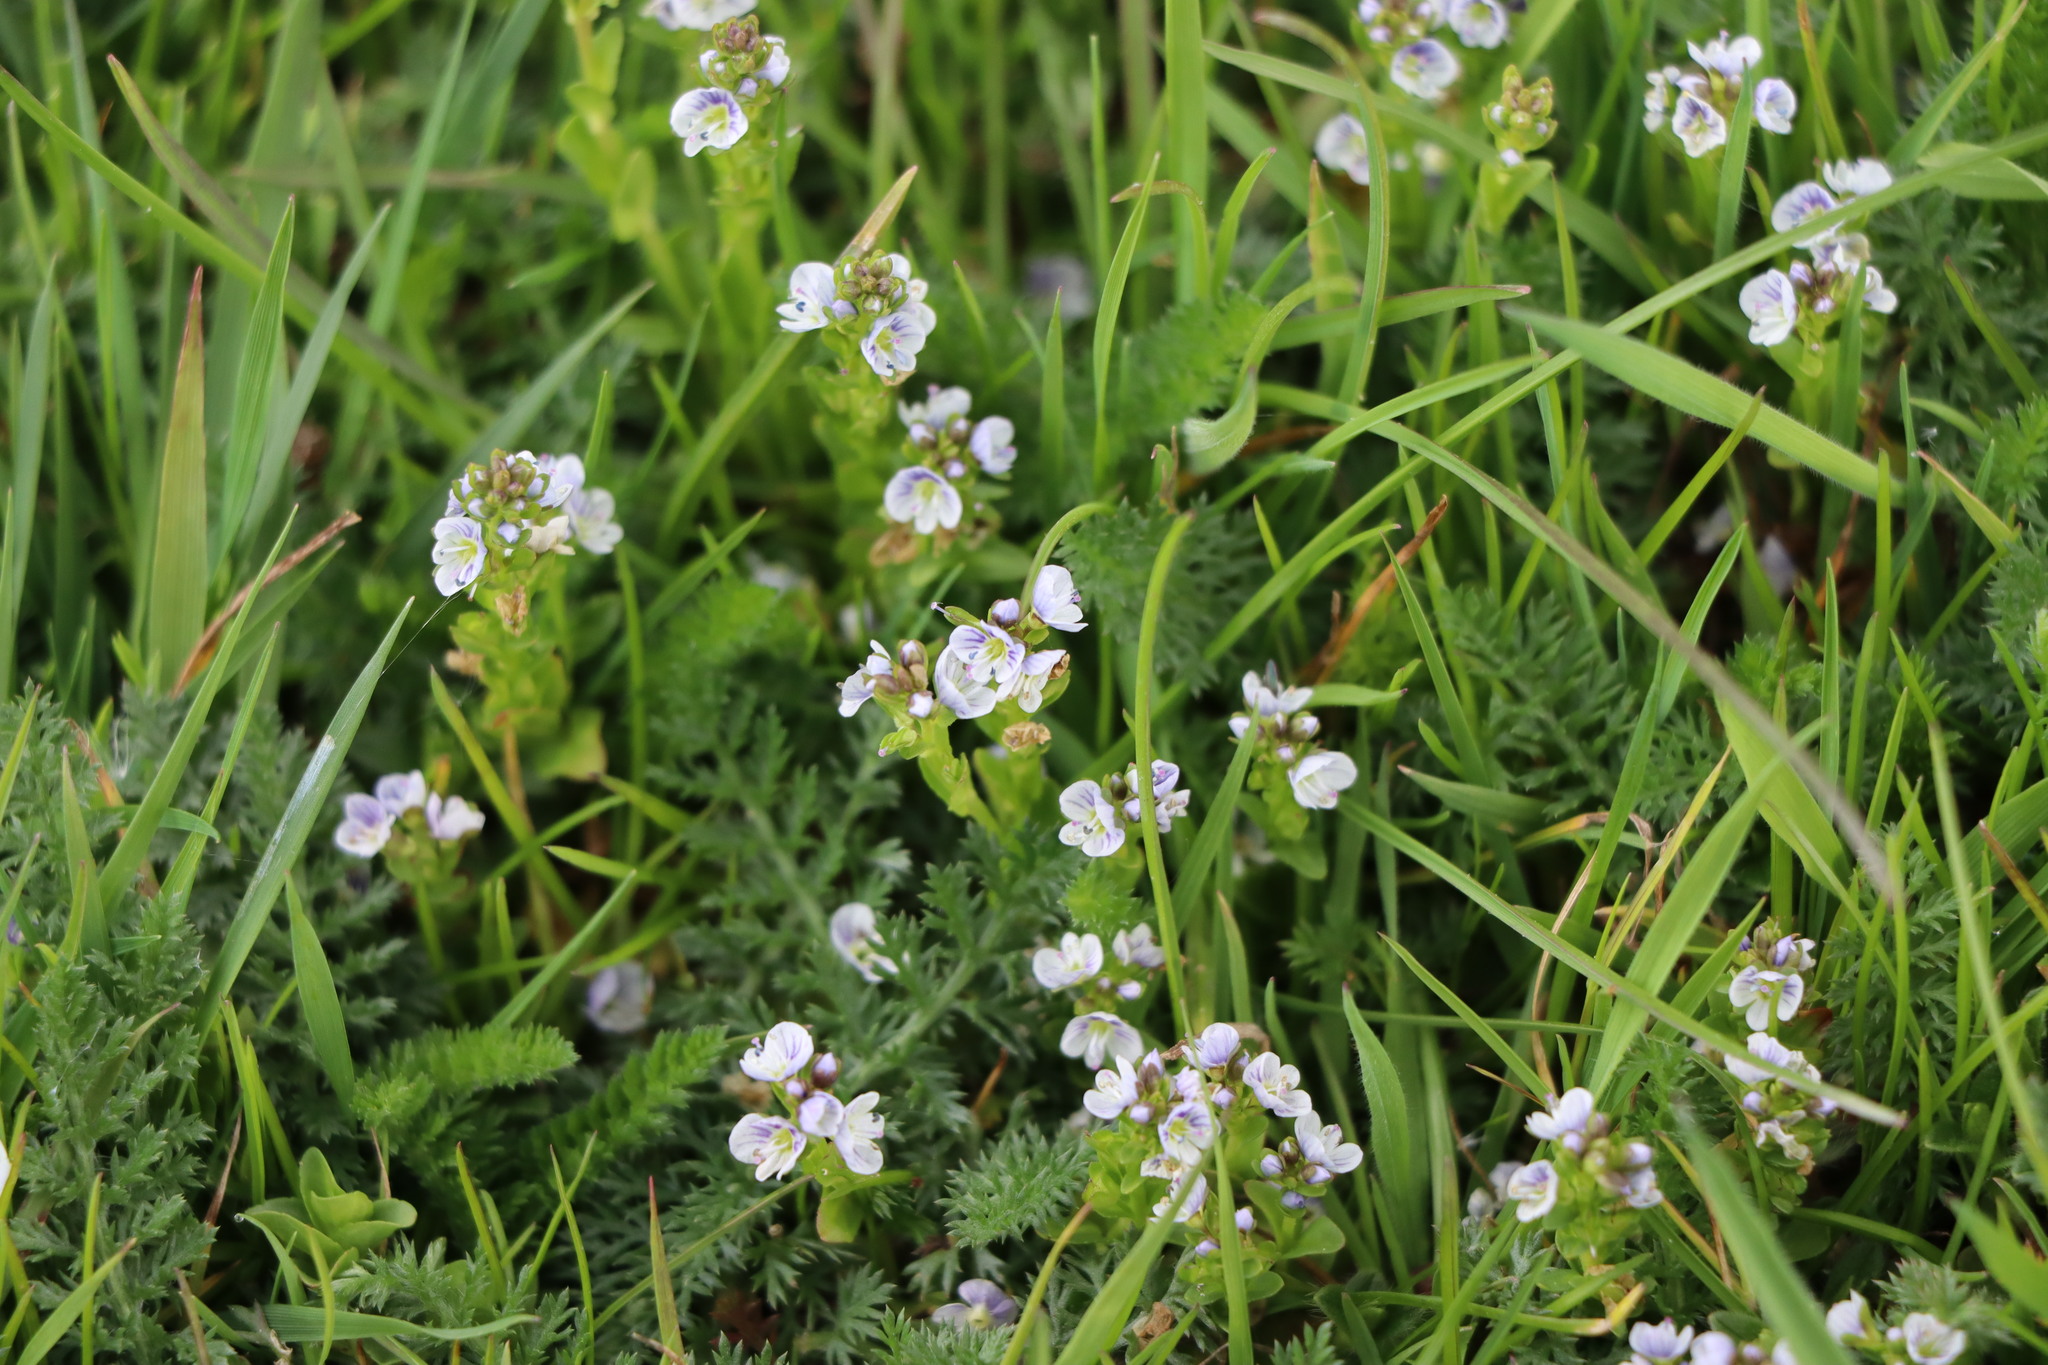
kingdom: Plantae
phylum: Tracheophyta
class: Magnoliopsida
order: Lamiales
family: Plantaginaceae
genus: Veronica
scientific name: Veronica serpyllifolia
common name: Thyme-leaved speedwell
